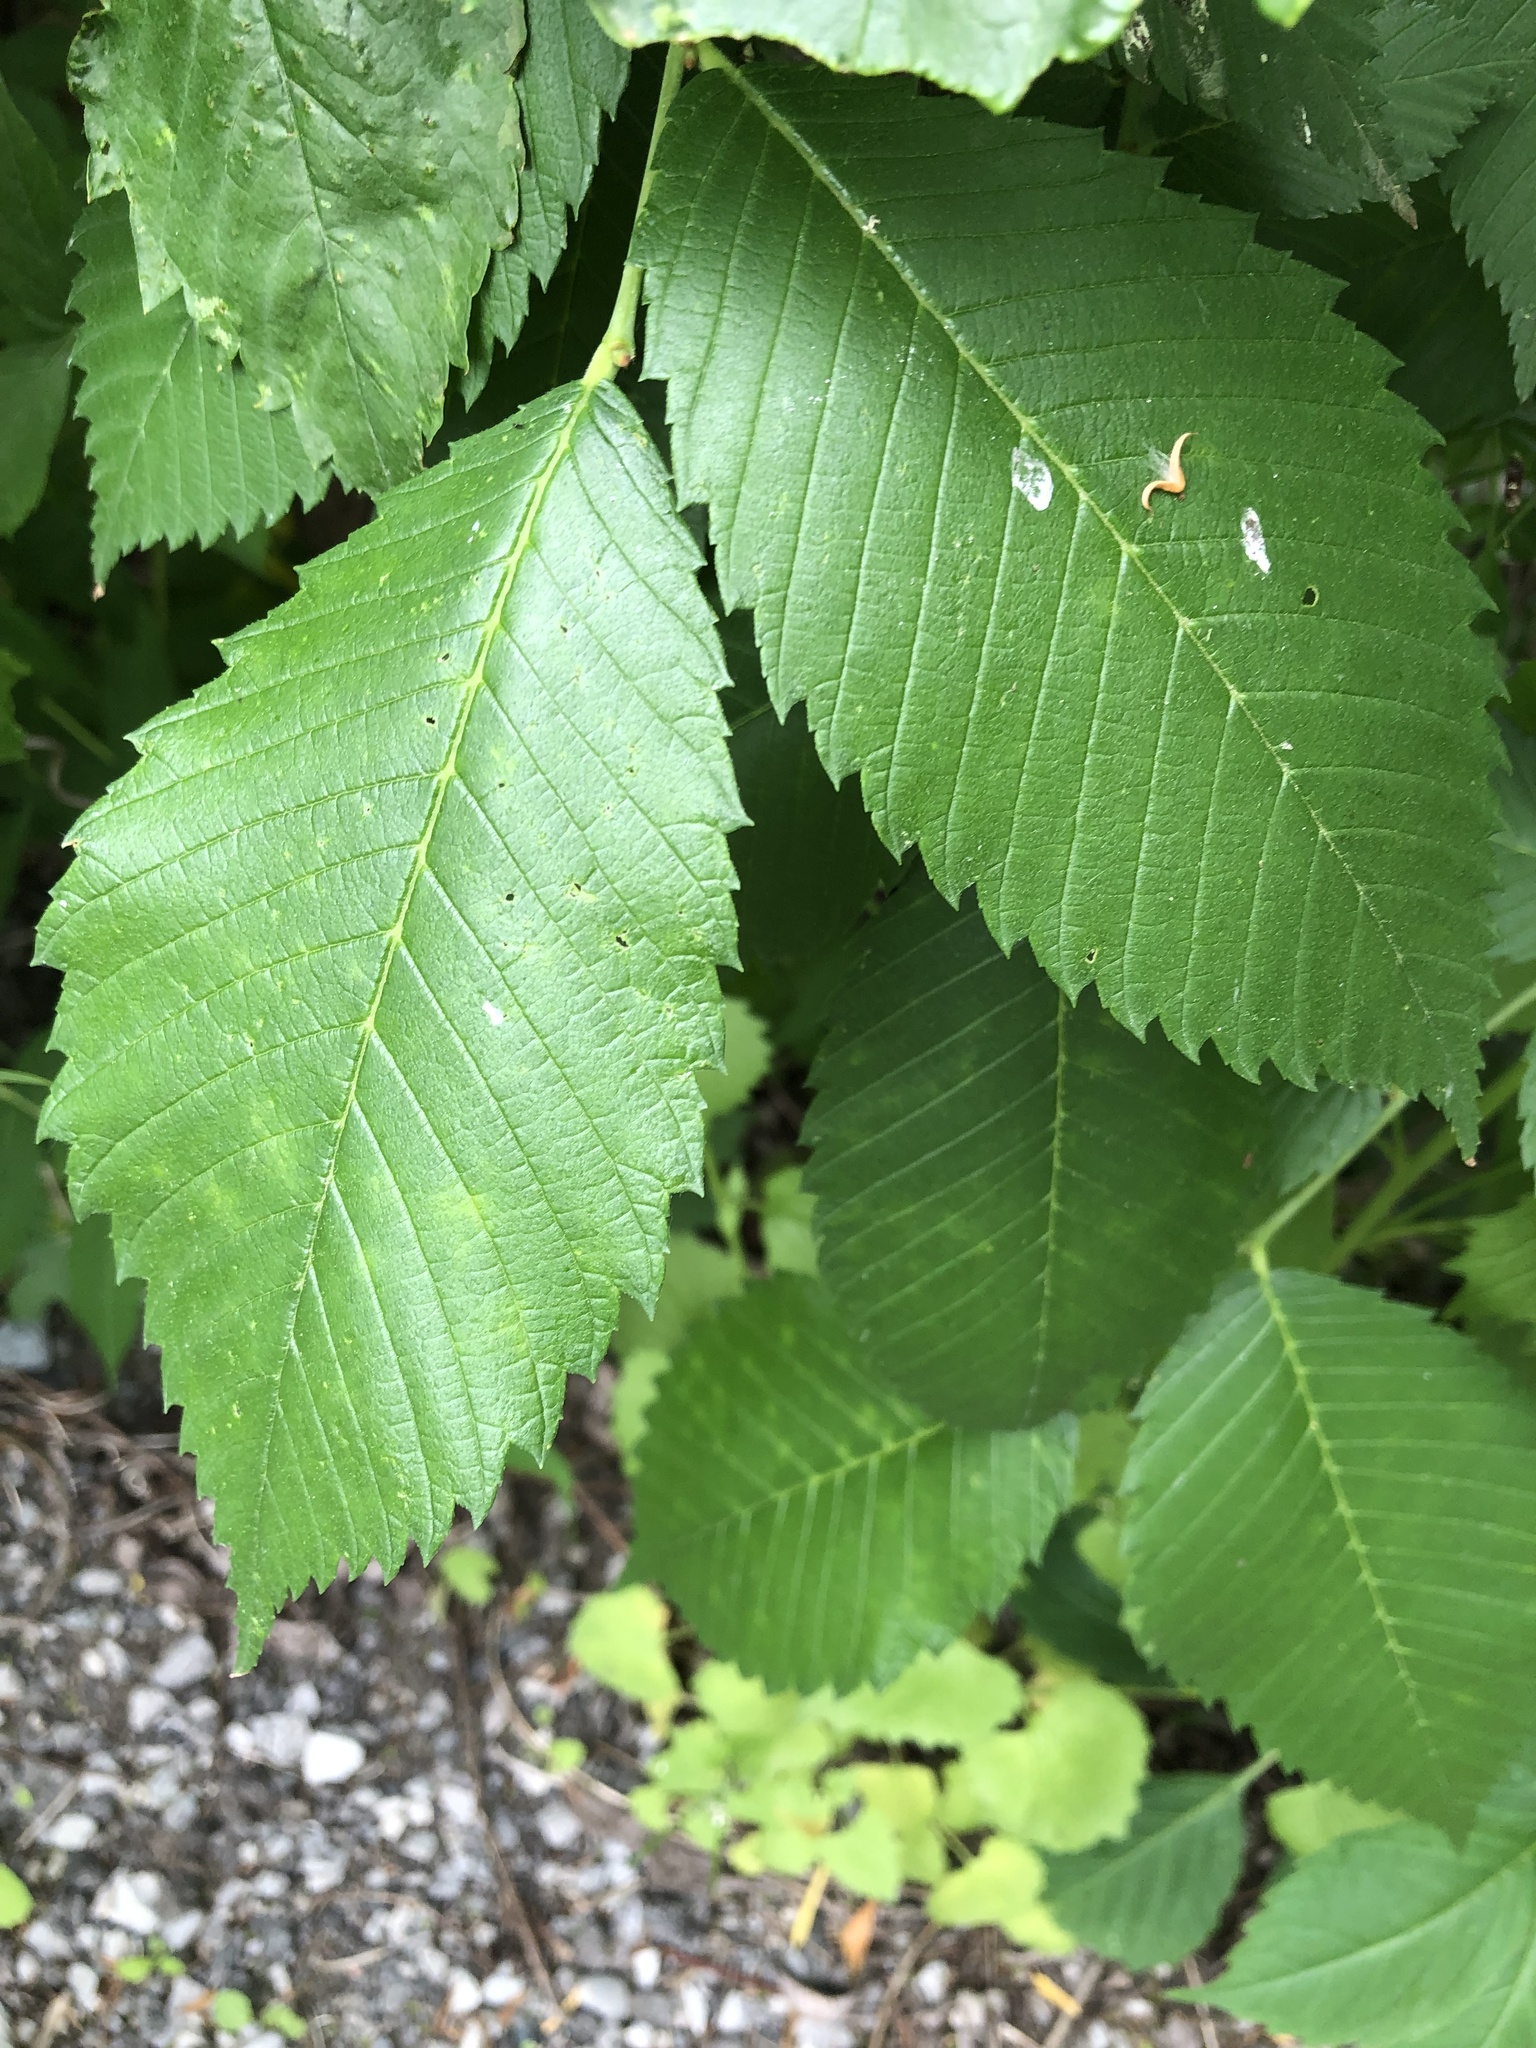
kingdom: Plantae
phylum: Tracheophyta
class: Magnoliopsida
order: Rosales
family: Ulmaceae
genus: Ulmus
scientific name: Ulmus americana
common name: American elm
